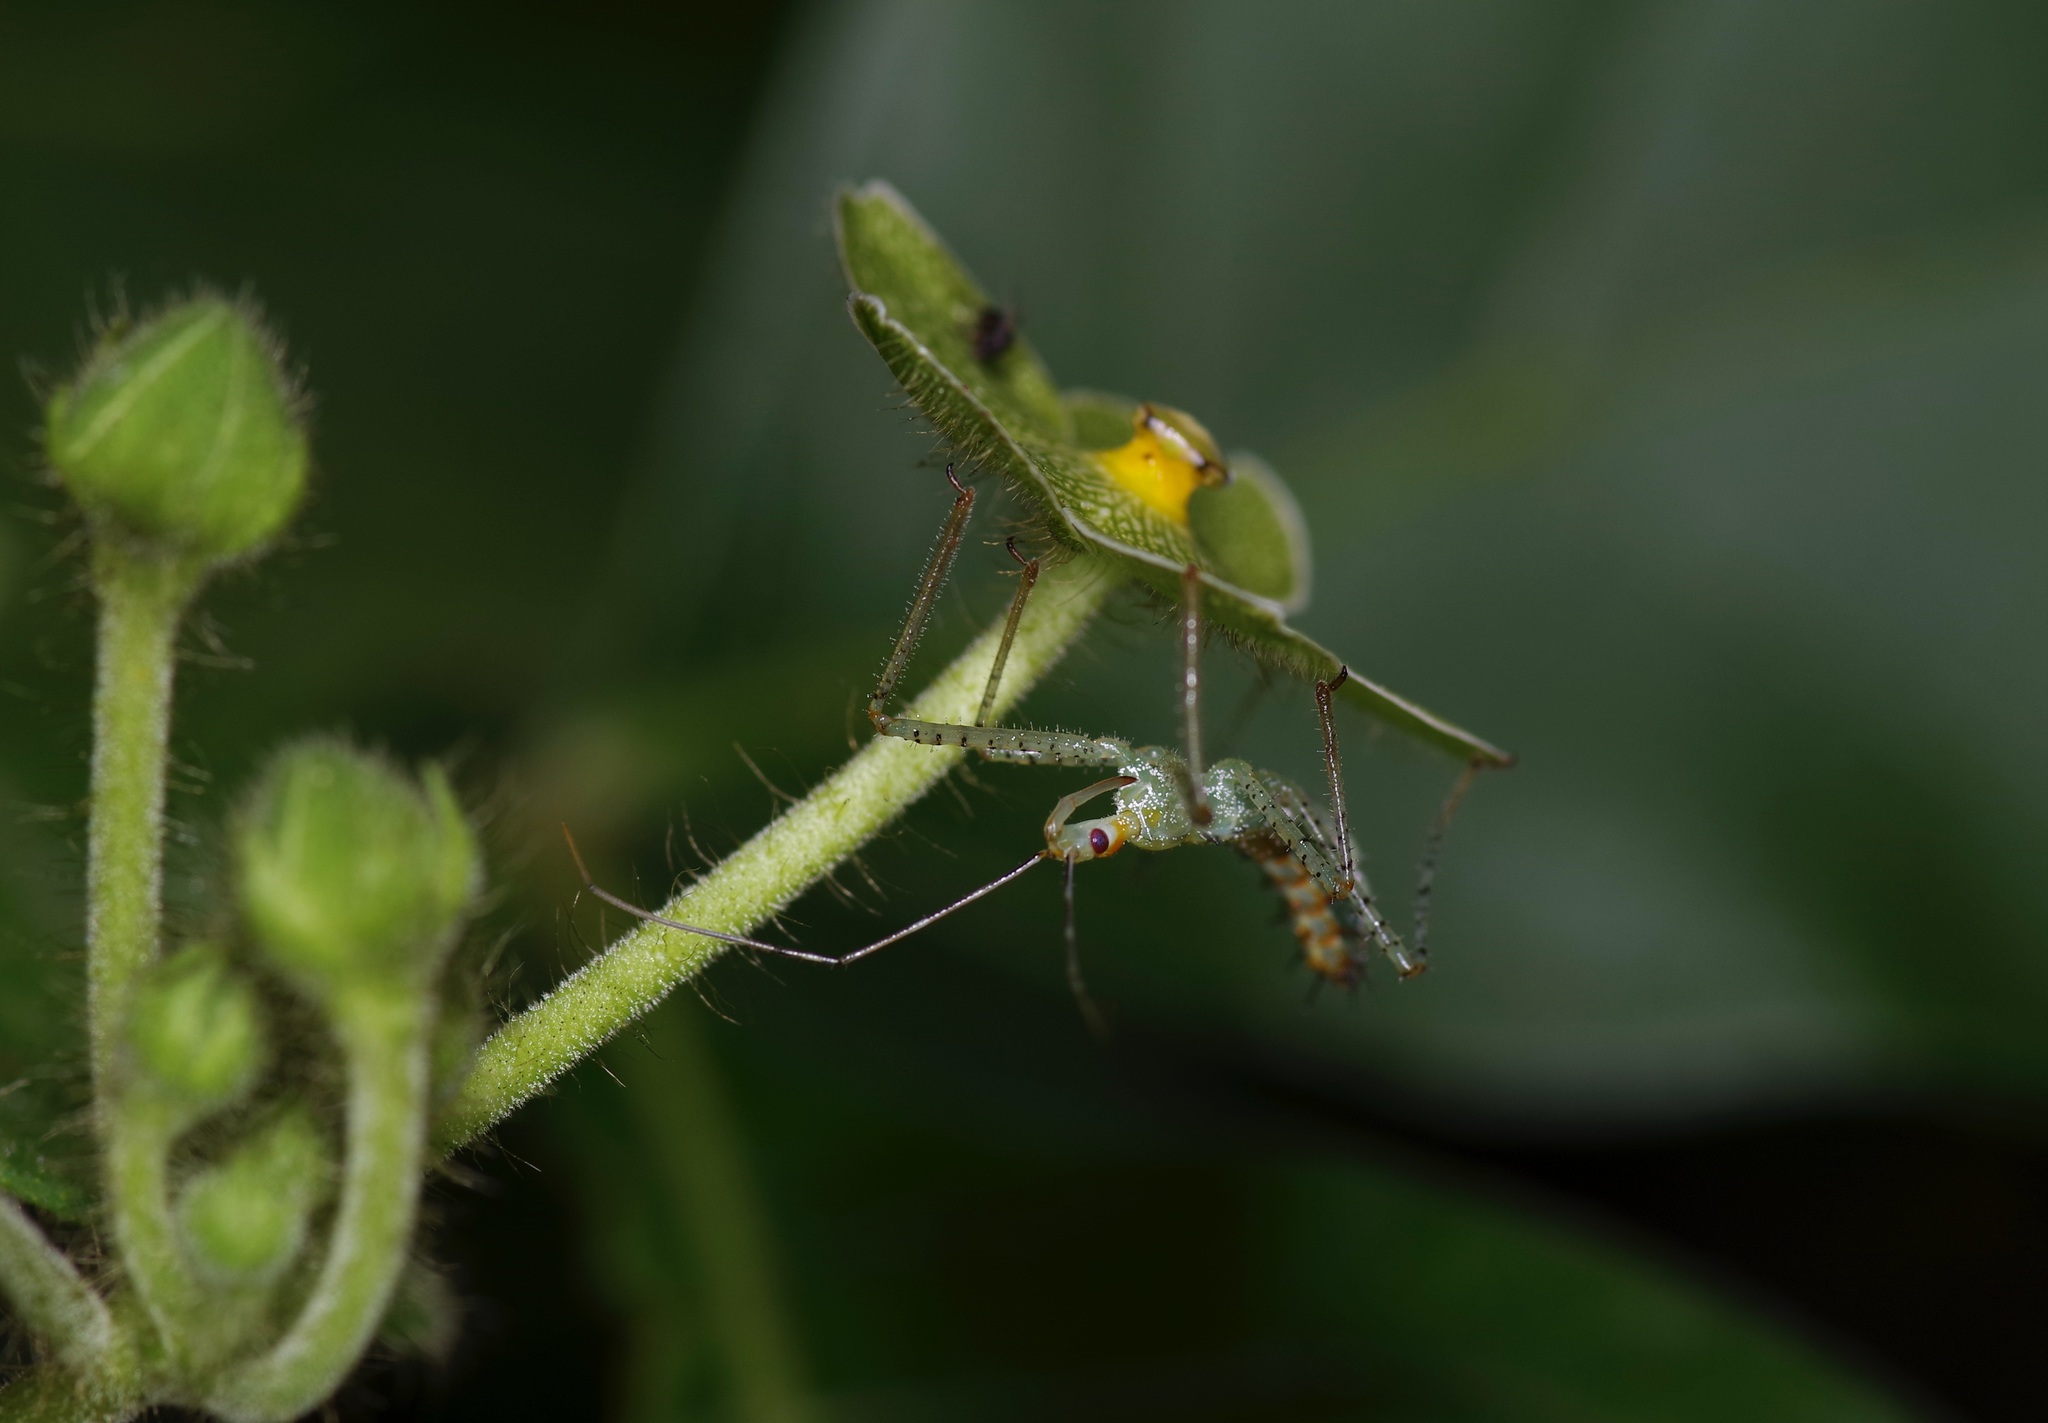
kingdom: Animalia
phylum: Arthropoda
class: Insecta
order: Hemiptera
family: Reduviidae
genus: Zelus
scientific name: Zelus renardii
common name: Assassin bug
